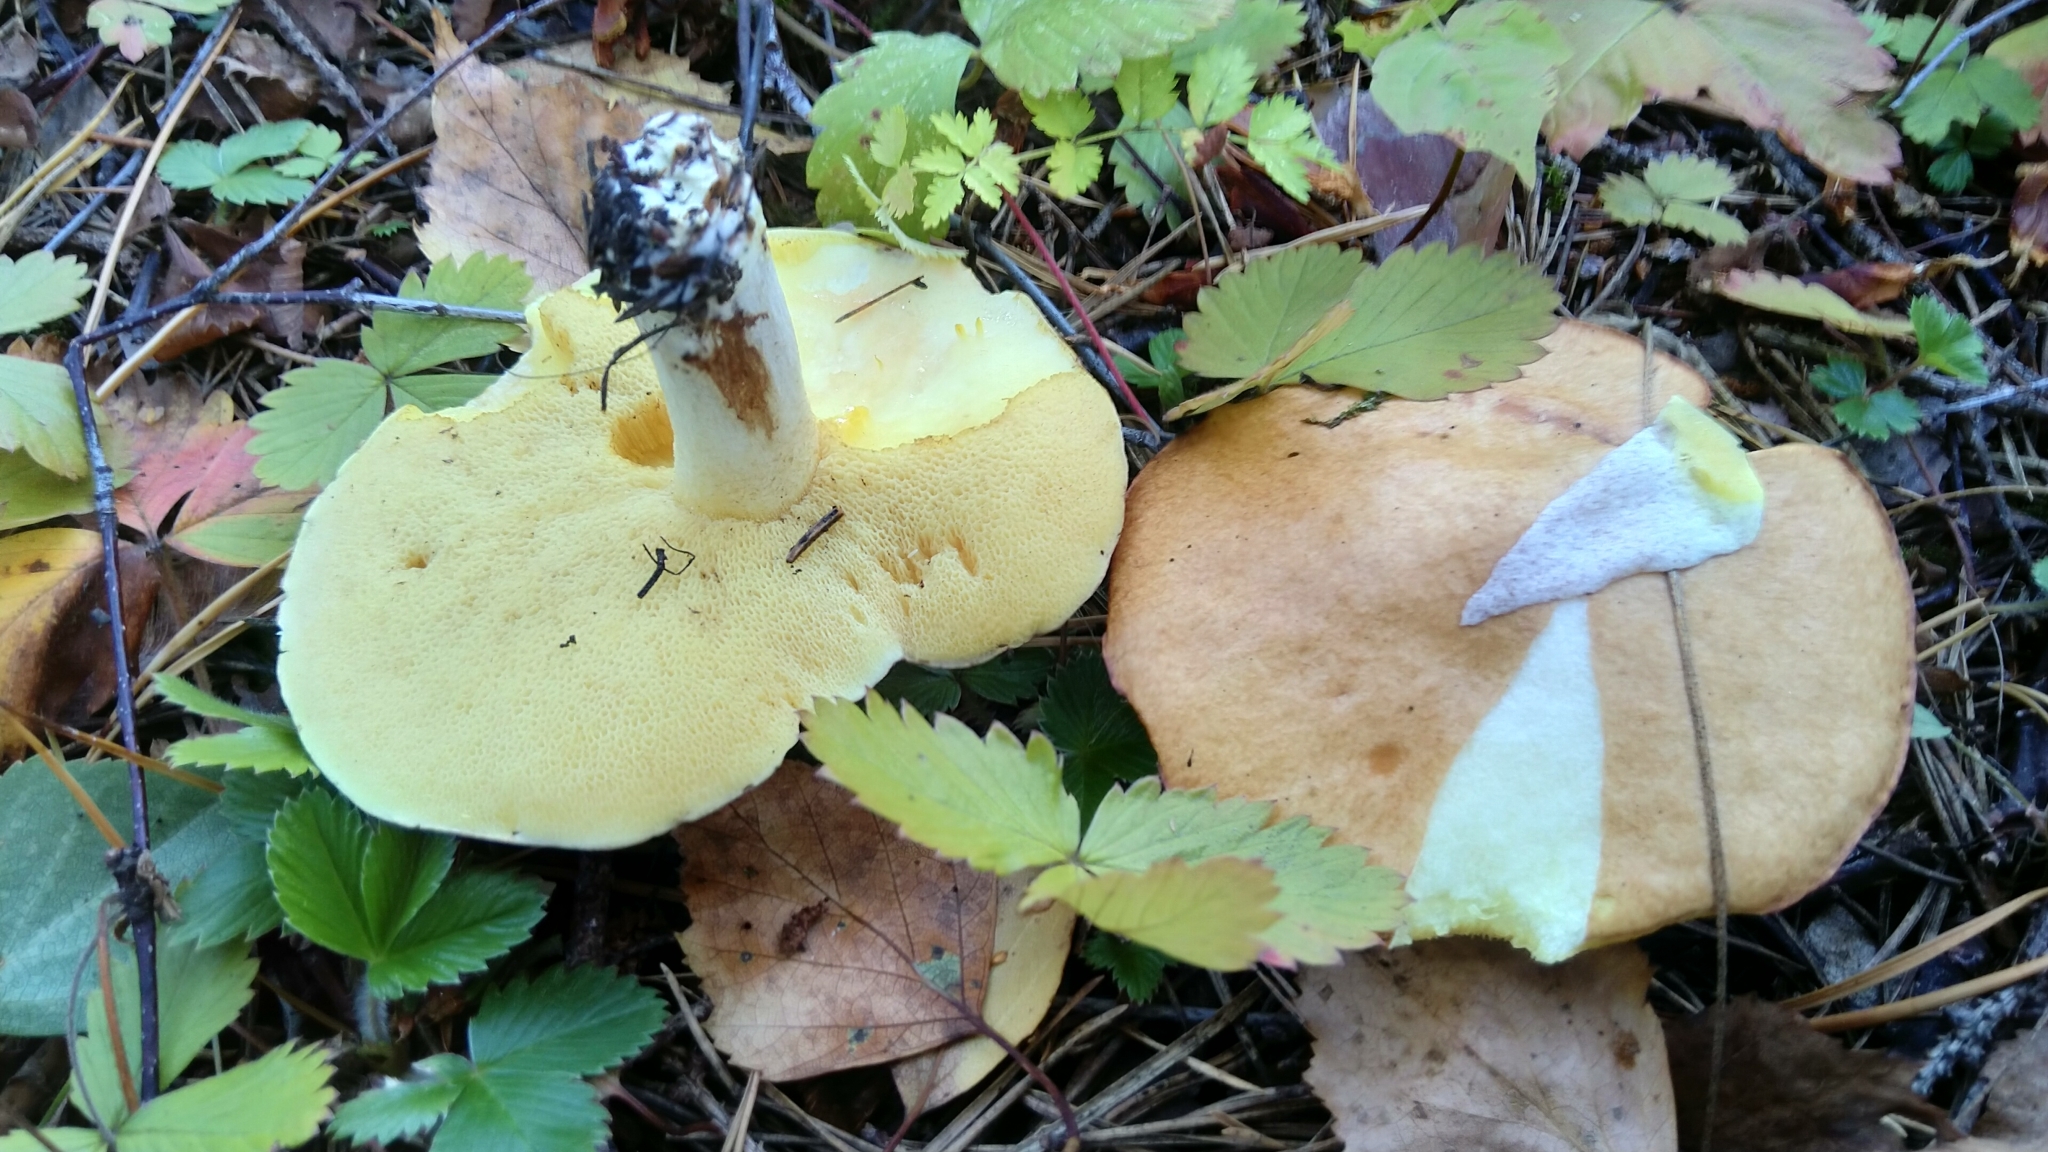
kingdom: Fungi
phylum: Basidiomycota
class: Agaricomycetes
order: Boletales
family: Suillaceae
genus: Suillus
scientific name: Suillus granulatus
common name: Weeping bolete
